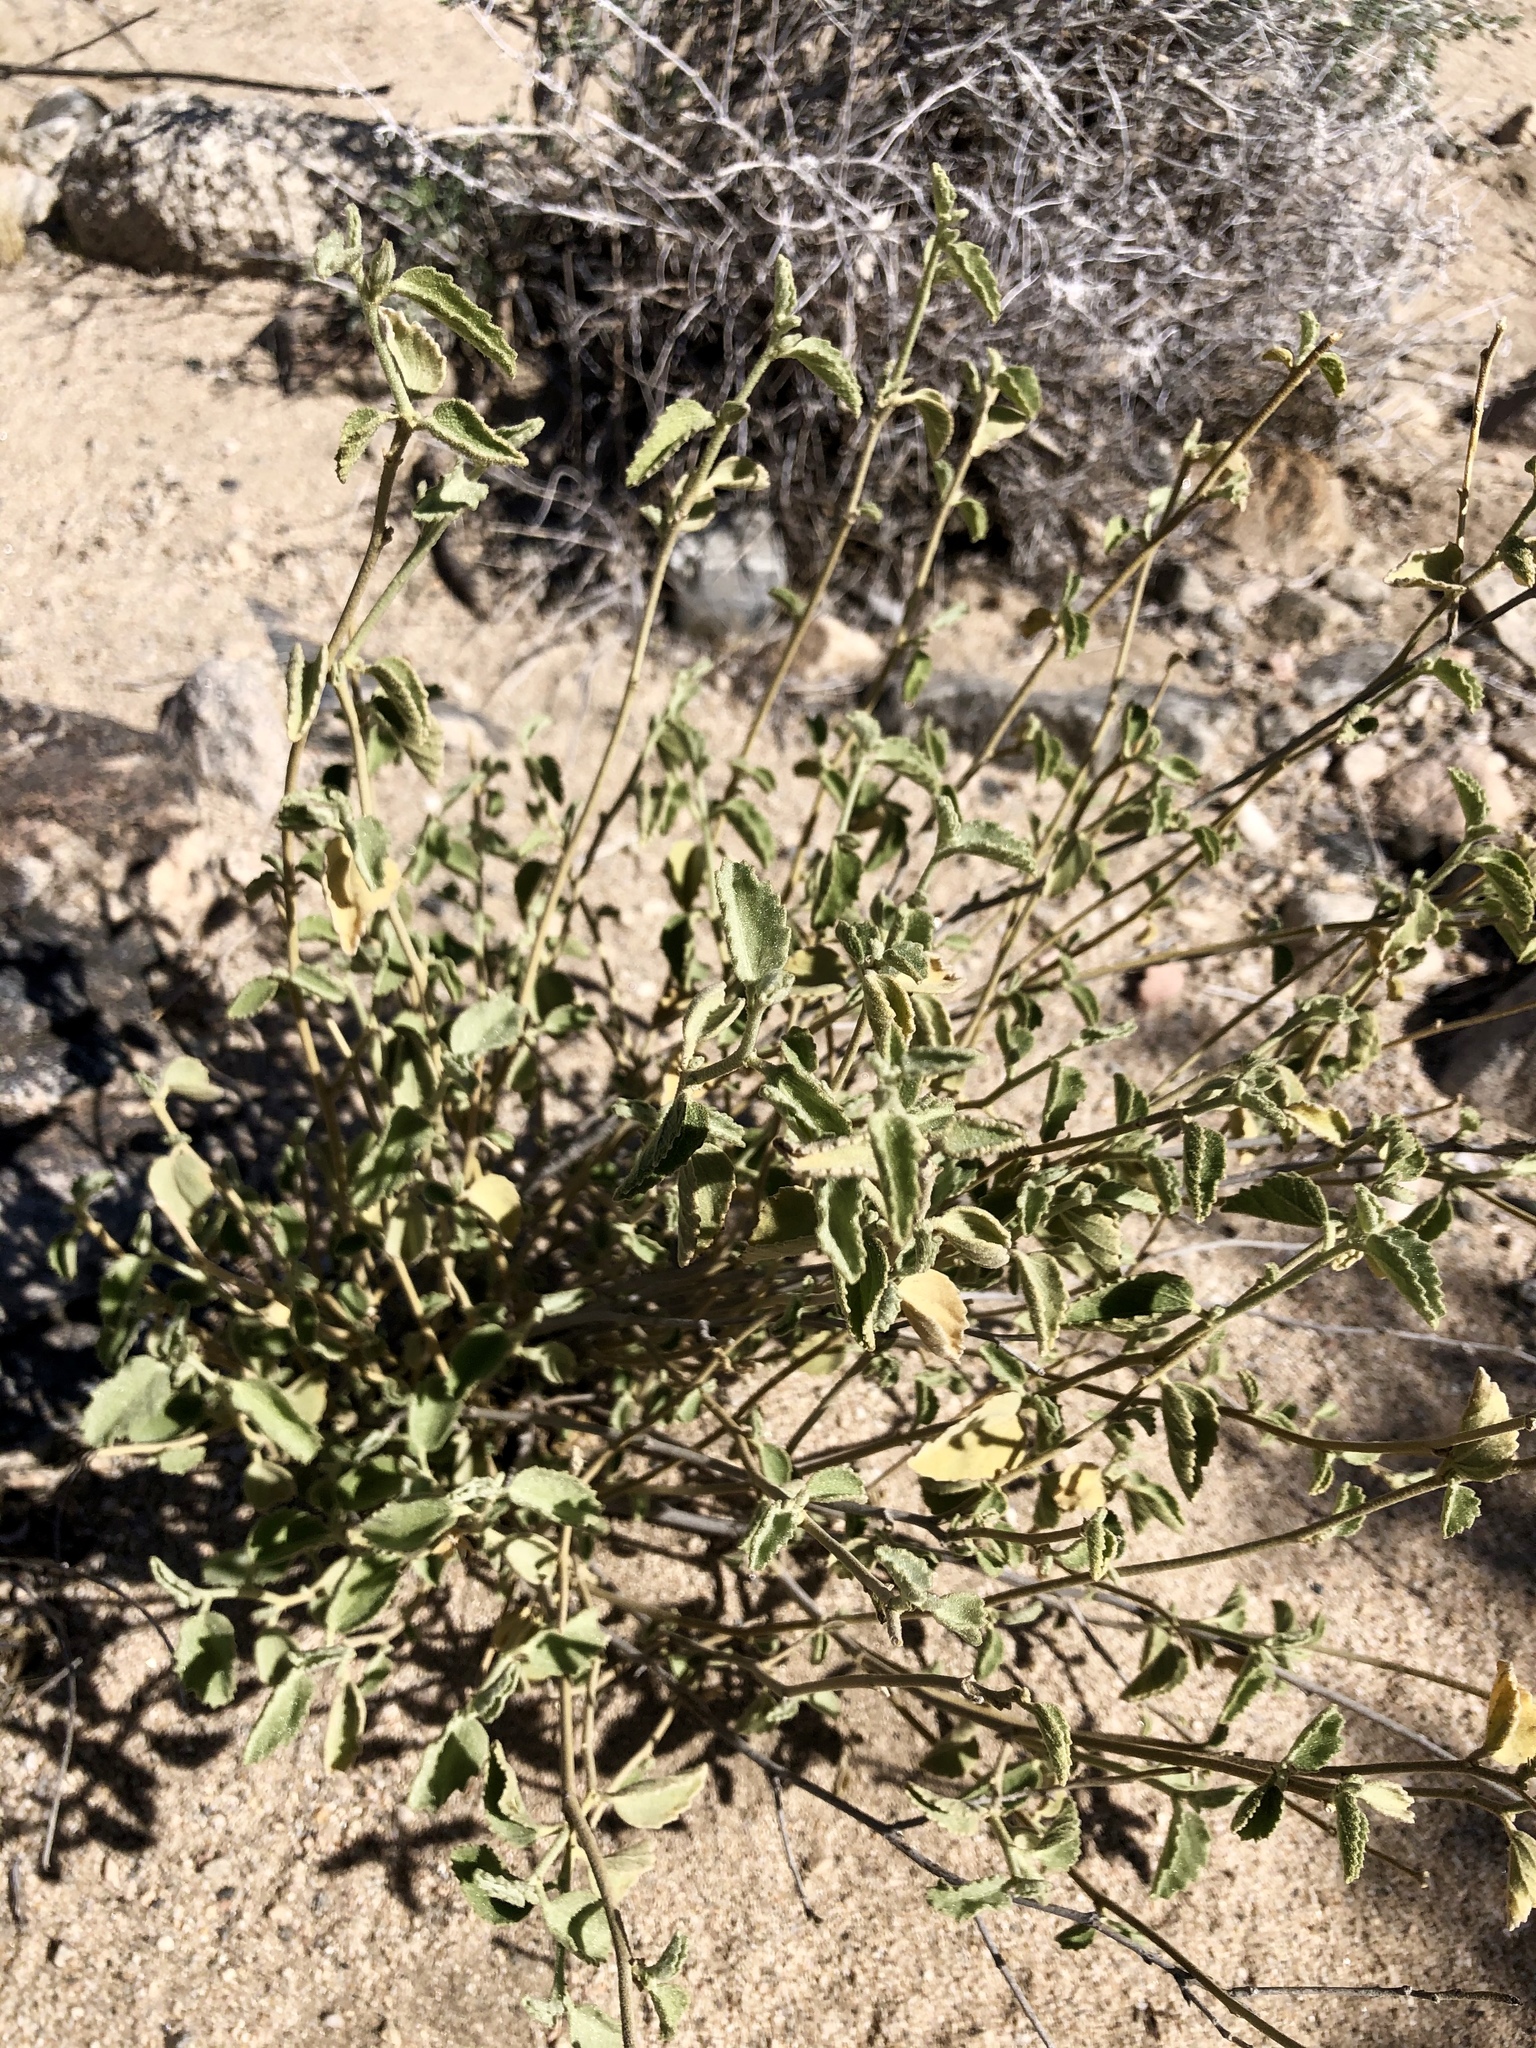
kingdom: Plantae
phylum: Tracheophyta
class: Magnoliopsida
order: Malvales
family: Malvaceae
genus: Hibiscus
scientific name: Hibiscus denudatus
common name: Paleface
